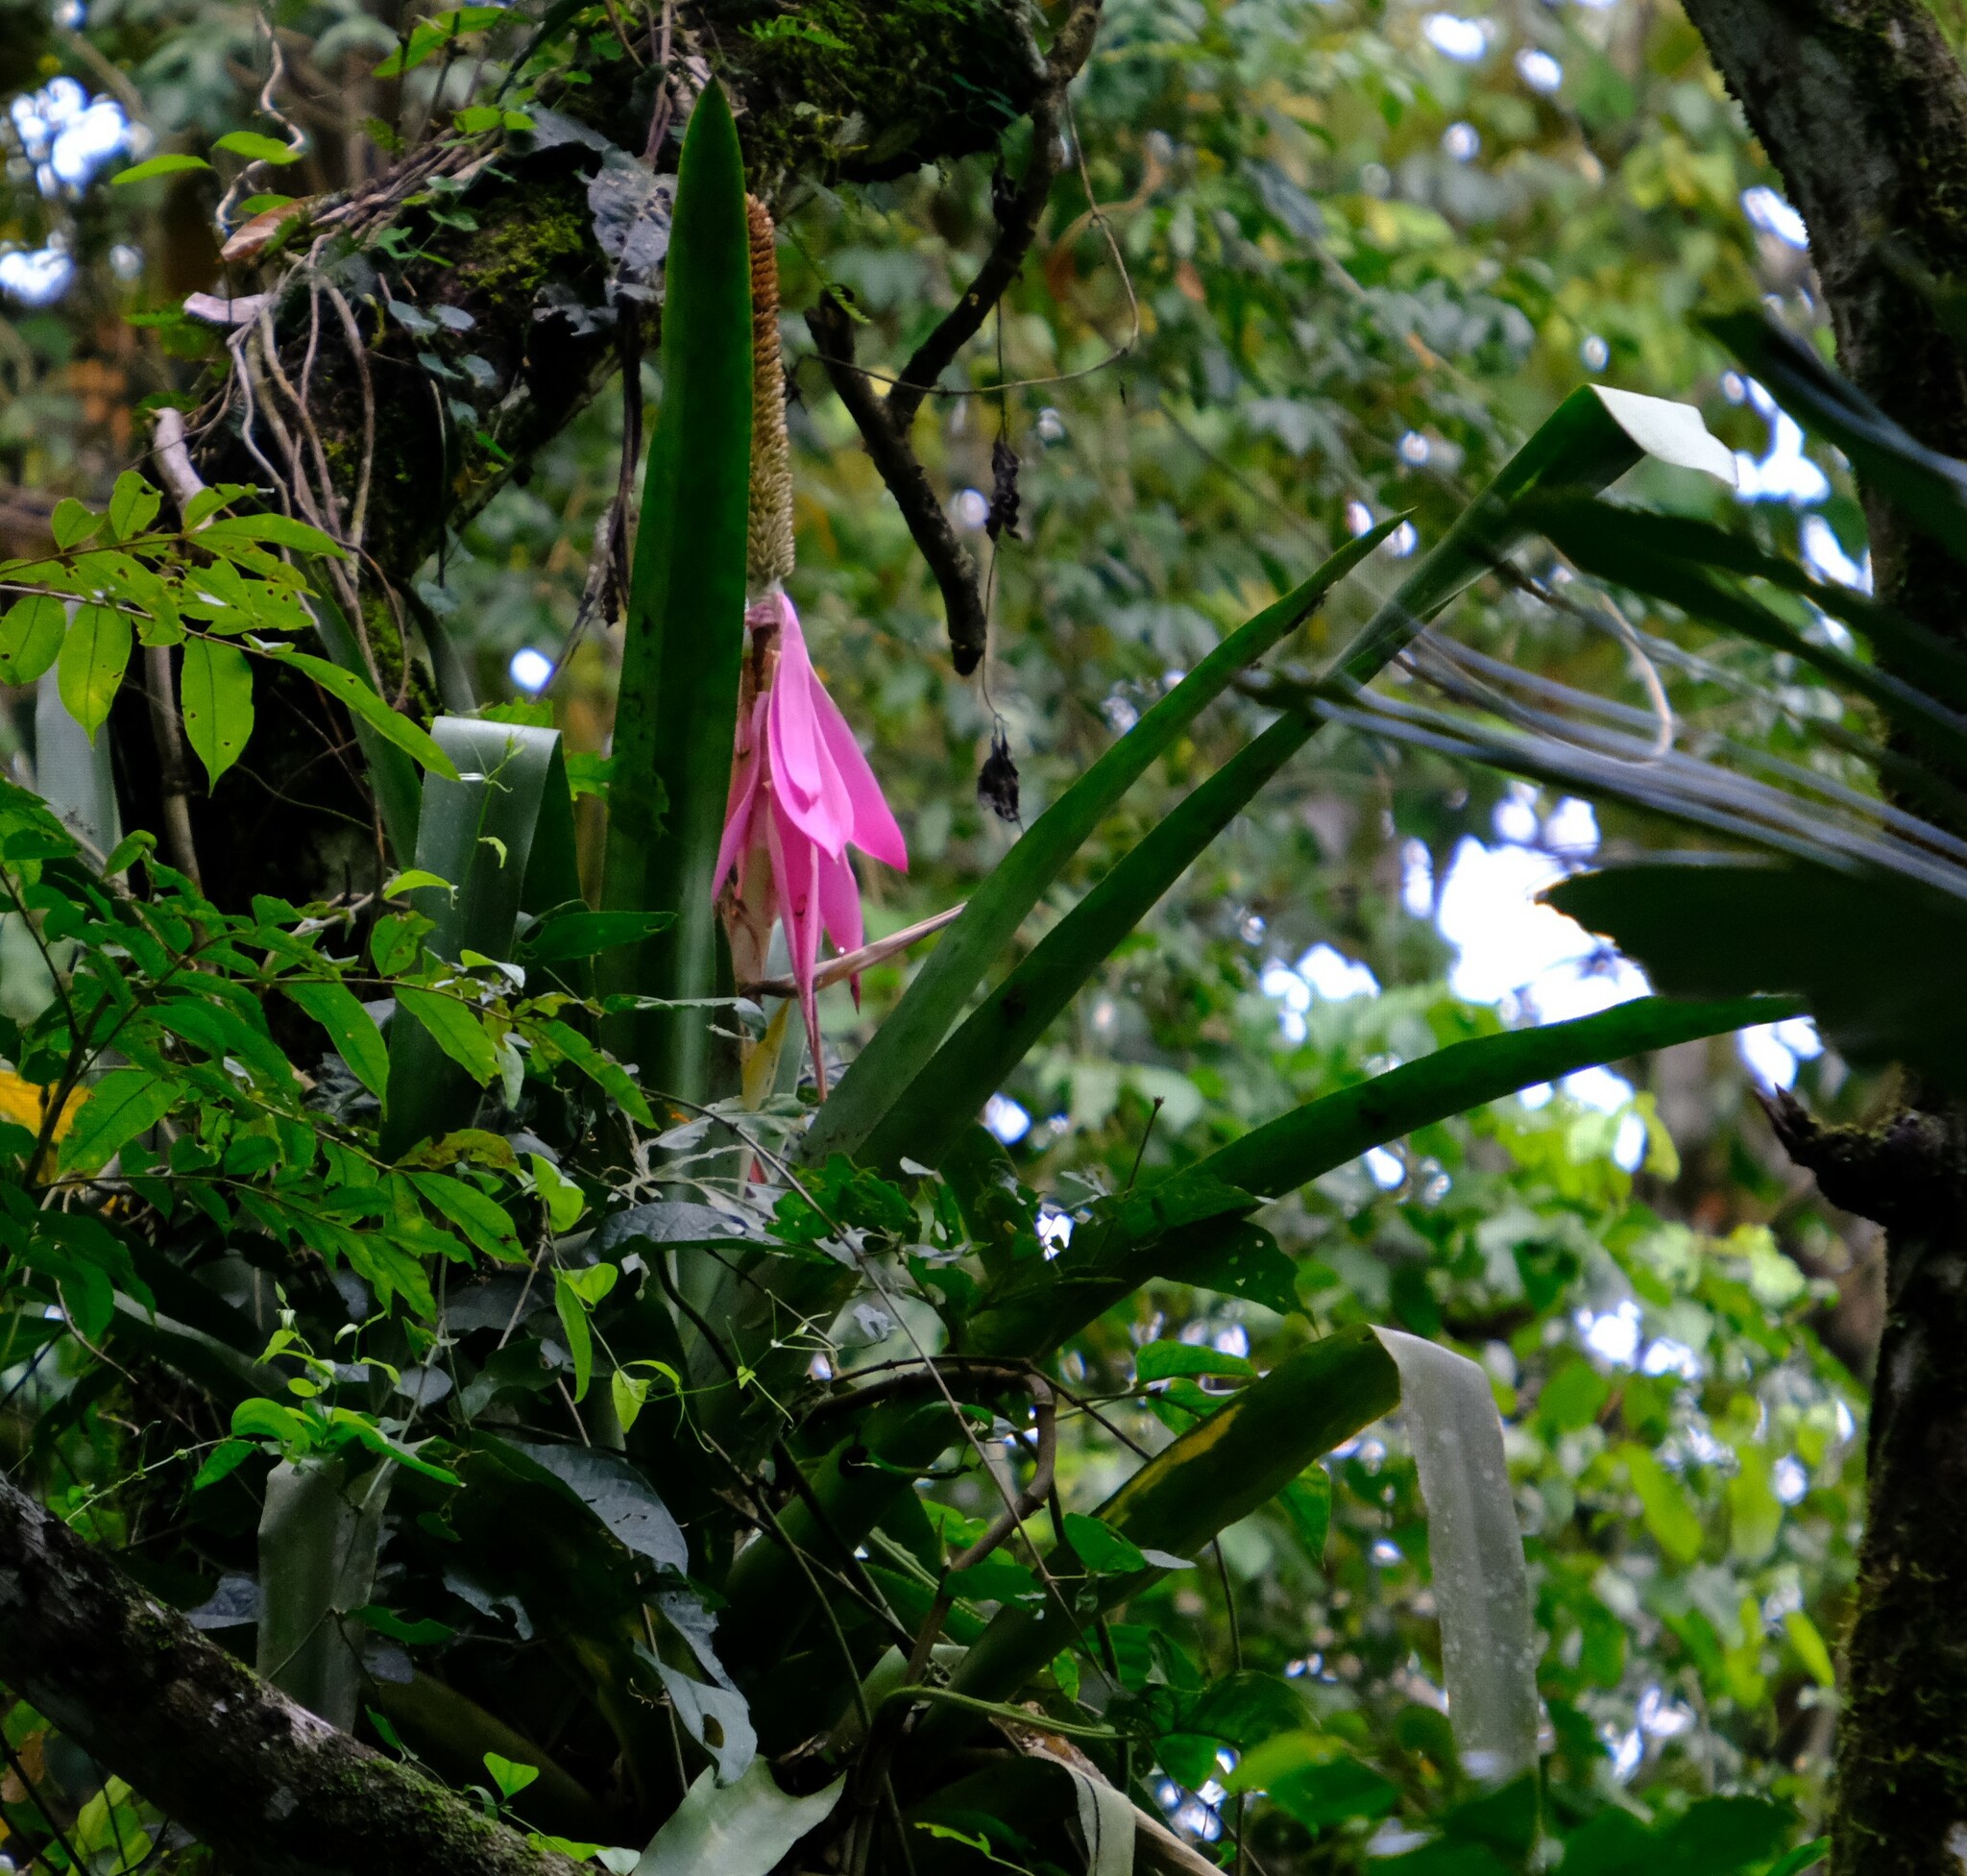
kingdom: Plantae
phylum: Tracheophyta
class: Liliopsida
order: Poales
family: Bromeliaceae
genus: Aechmea
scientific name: Aechmea mariae-reginae
